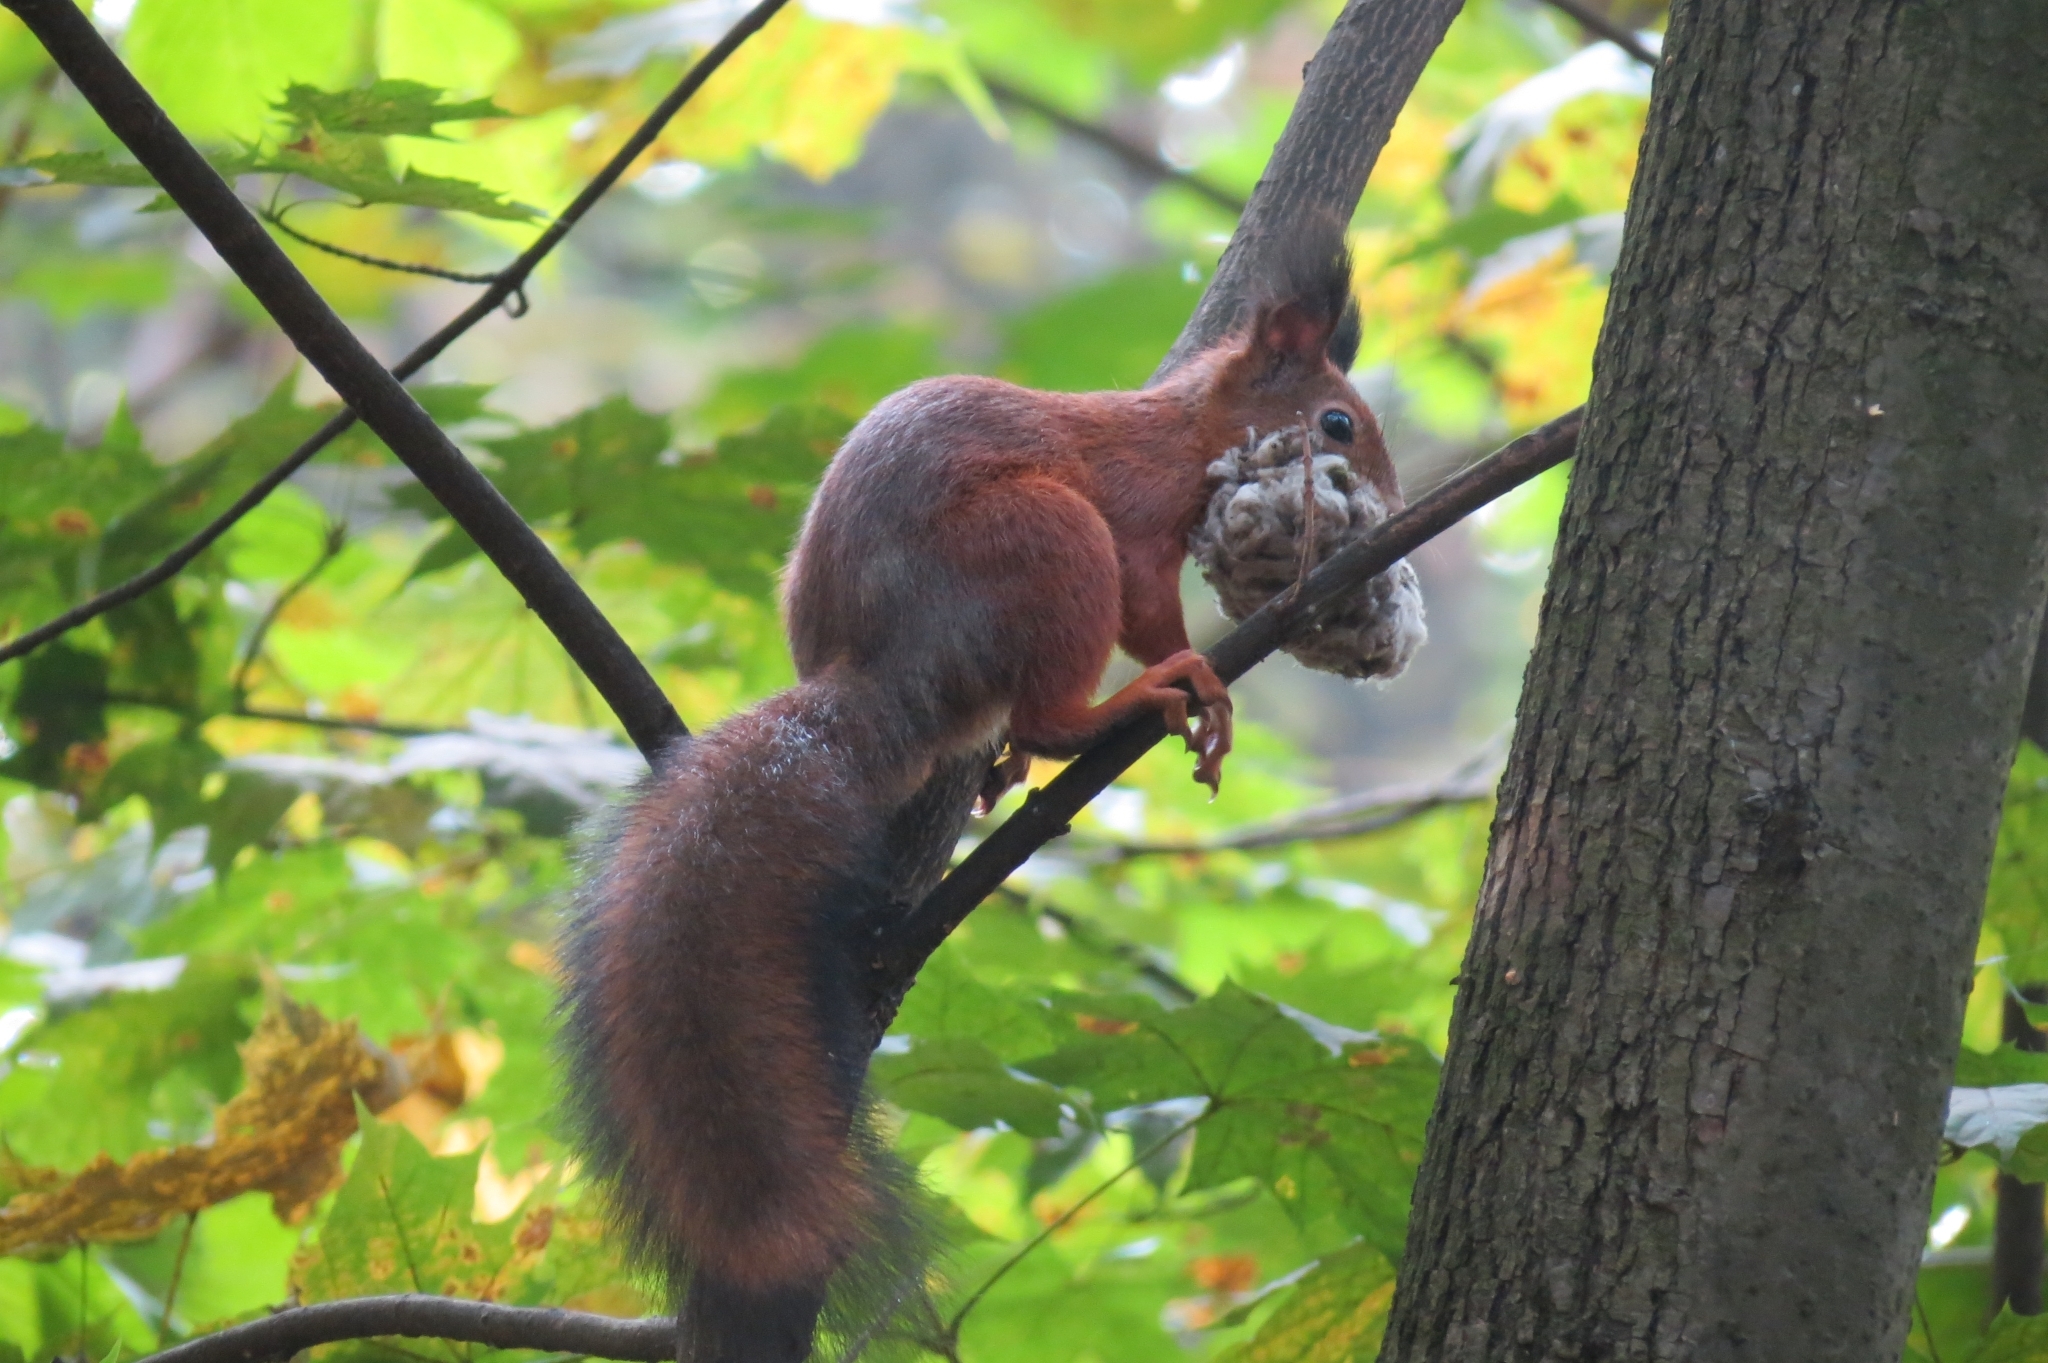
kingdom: Animalia
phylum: Chordata
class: Mammalia
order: Rodentia
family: Sciuridae
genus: Sciurus
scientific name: Sciurus vulgaris
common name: Eurasian red squirrel
